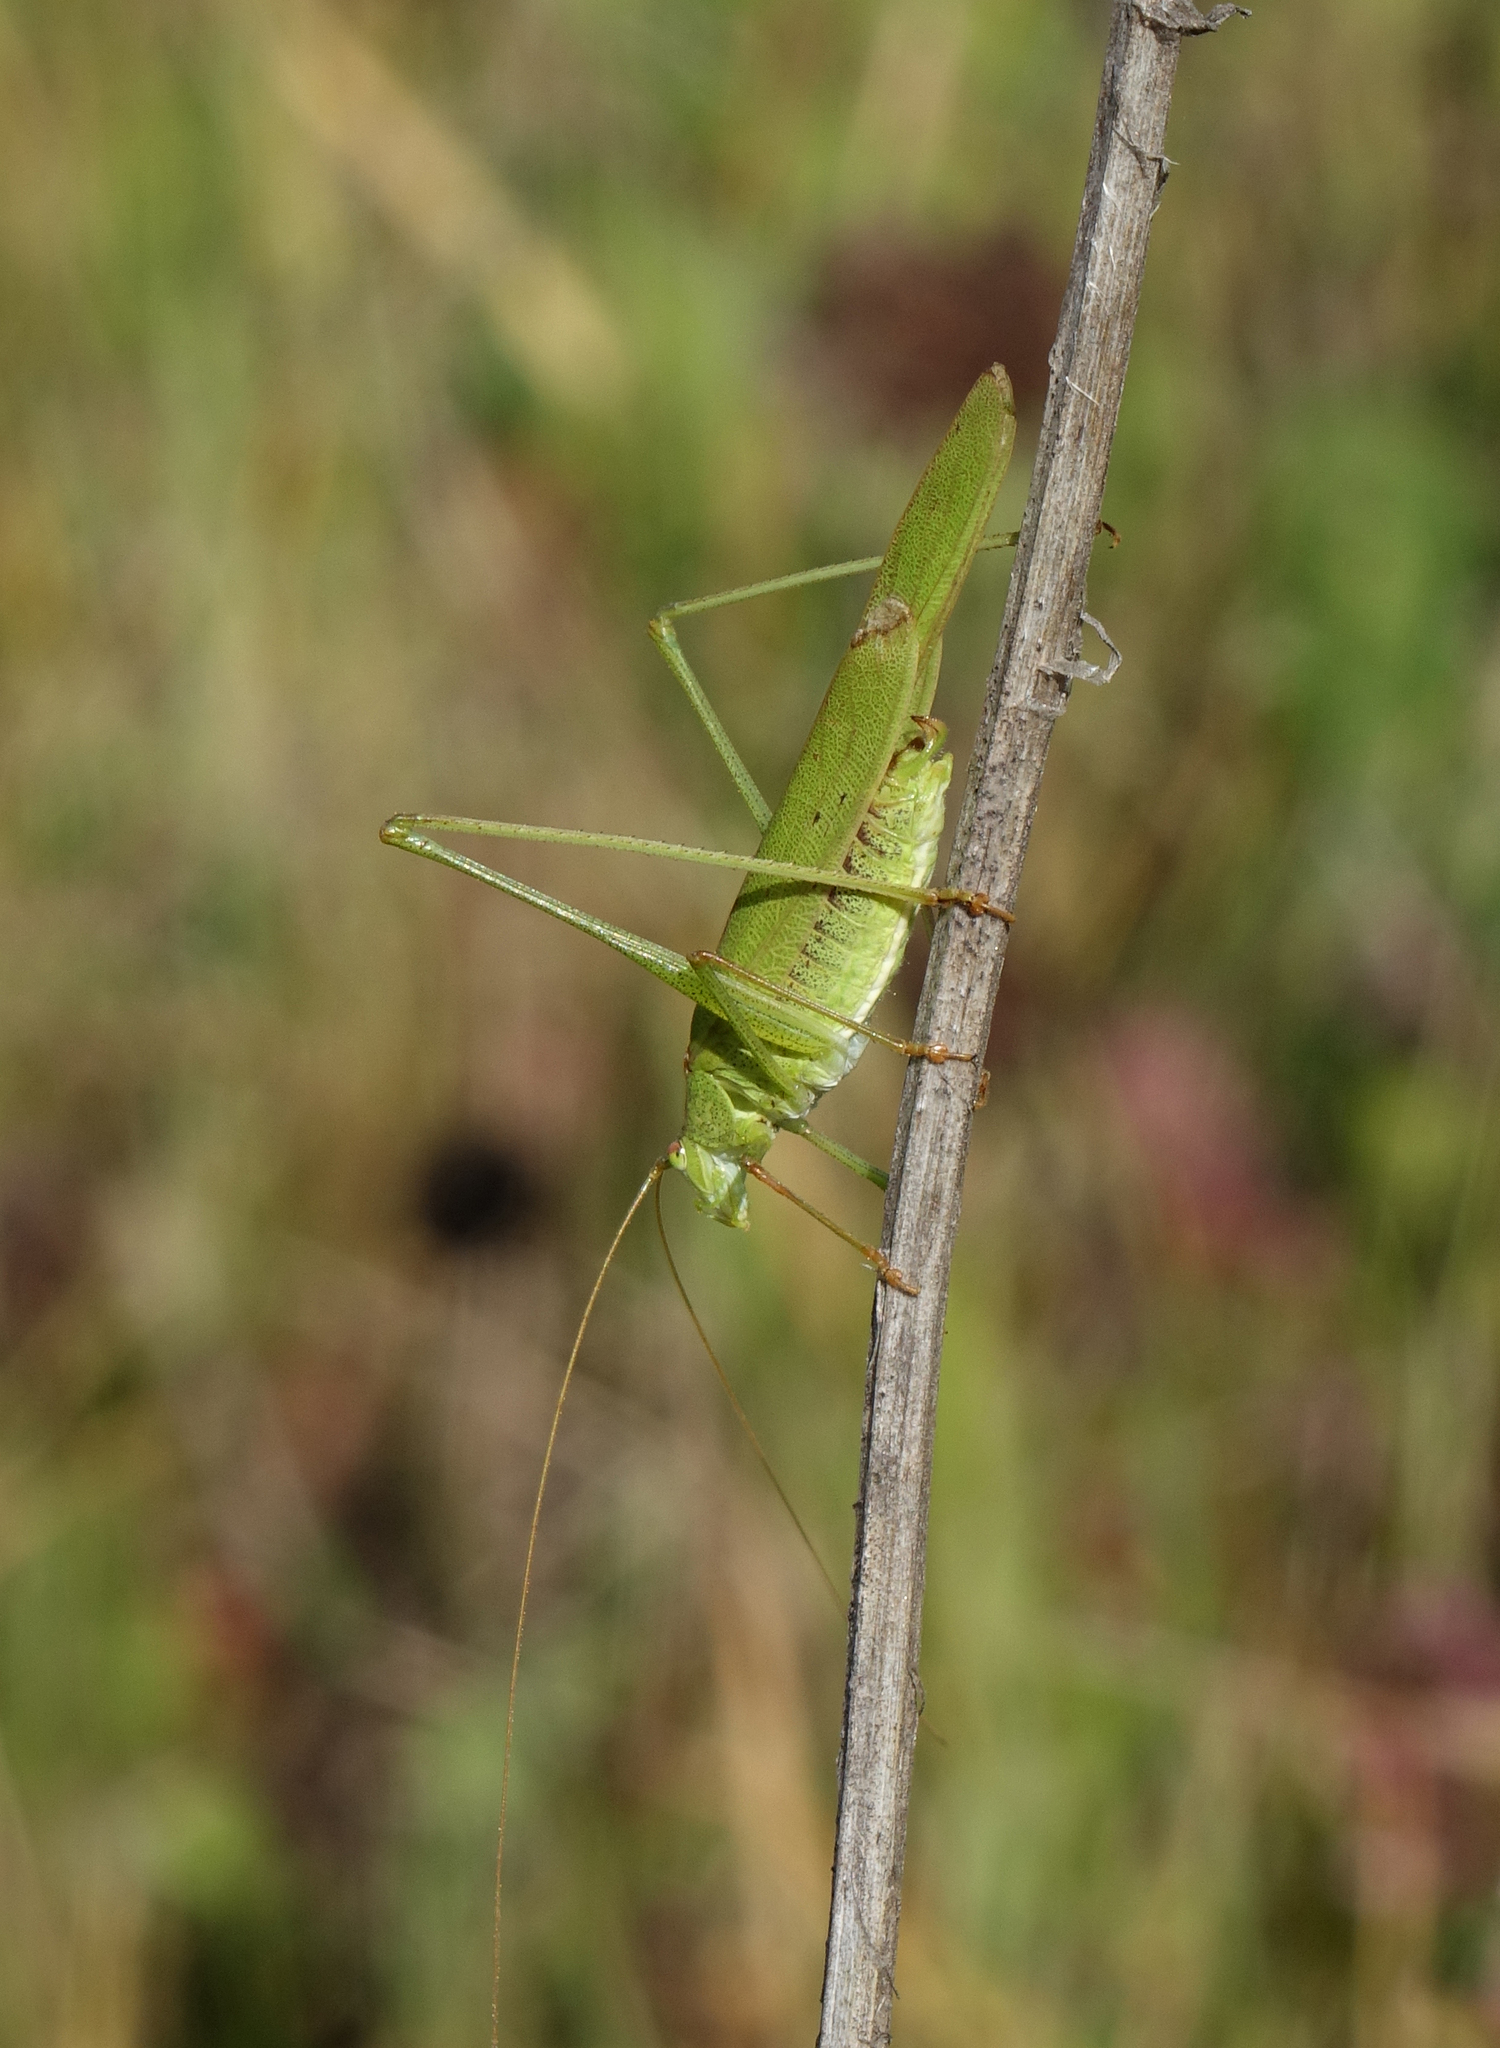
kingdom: Animalia
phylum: Arthropoda
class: Insecta
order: Orthoptera
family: Tettigoniidae
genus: Phaneroptera
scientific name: Phaneroptera falcata
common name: Sickle-bearing bush-cricket
